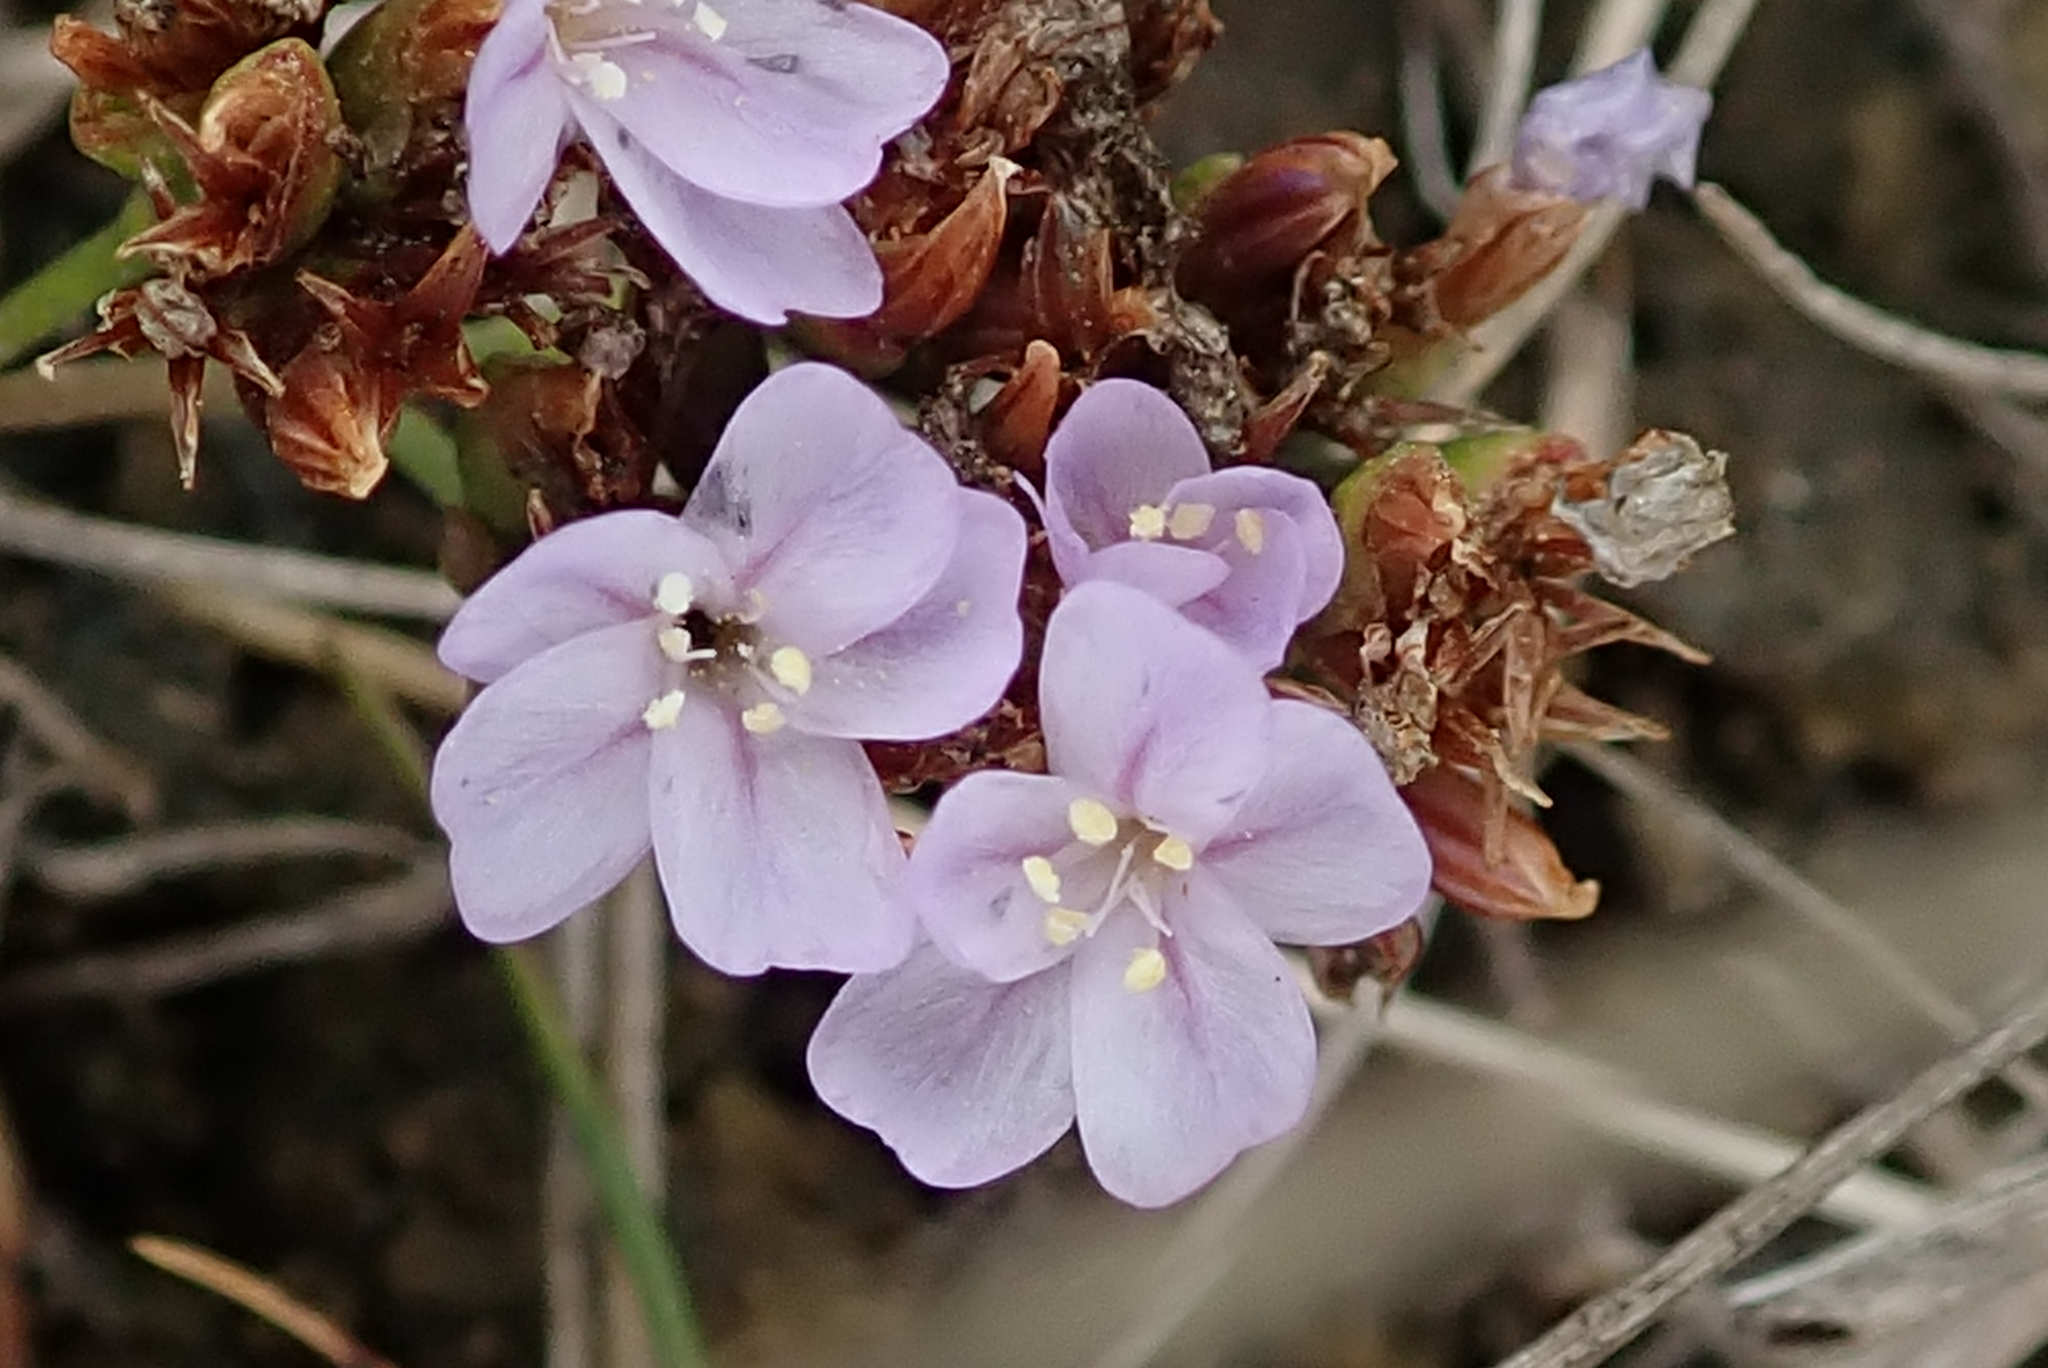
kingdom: Plantae
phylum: Tracheophyta
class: Magnoliopsida
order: Caryophyllales
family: Plumbaginaceae
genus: Limonium
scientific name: Limonium scabrum
